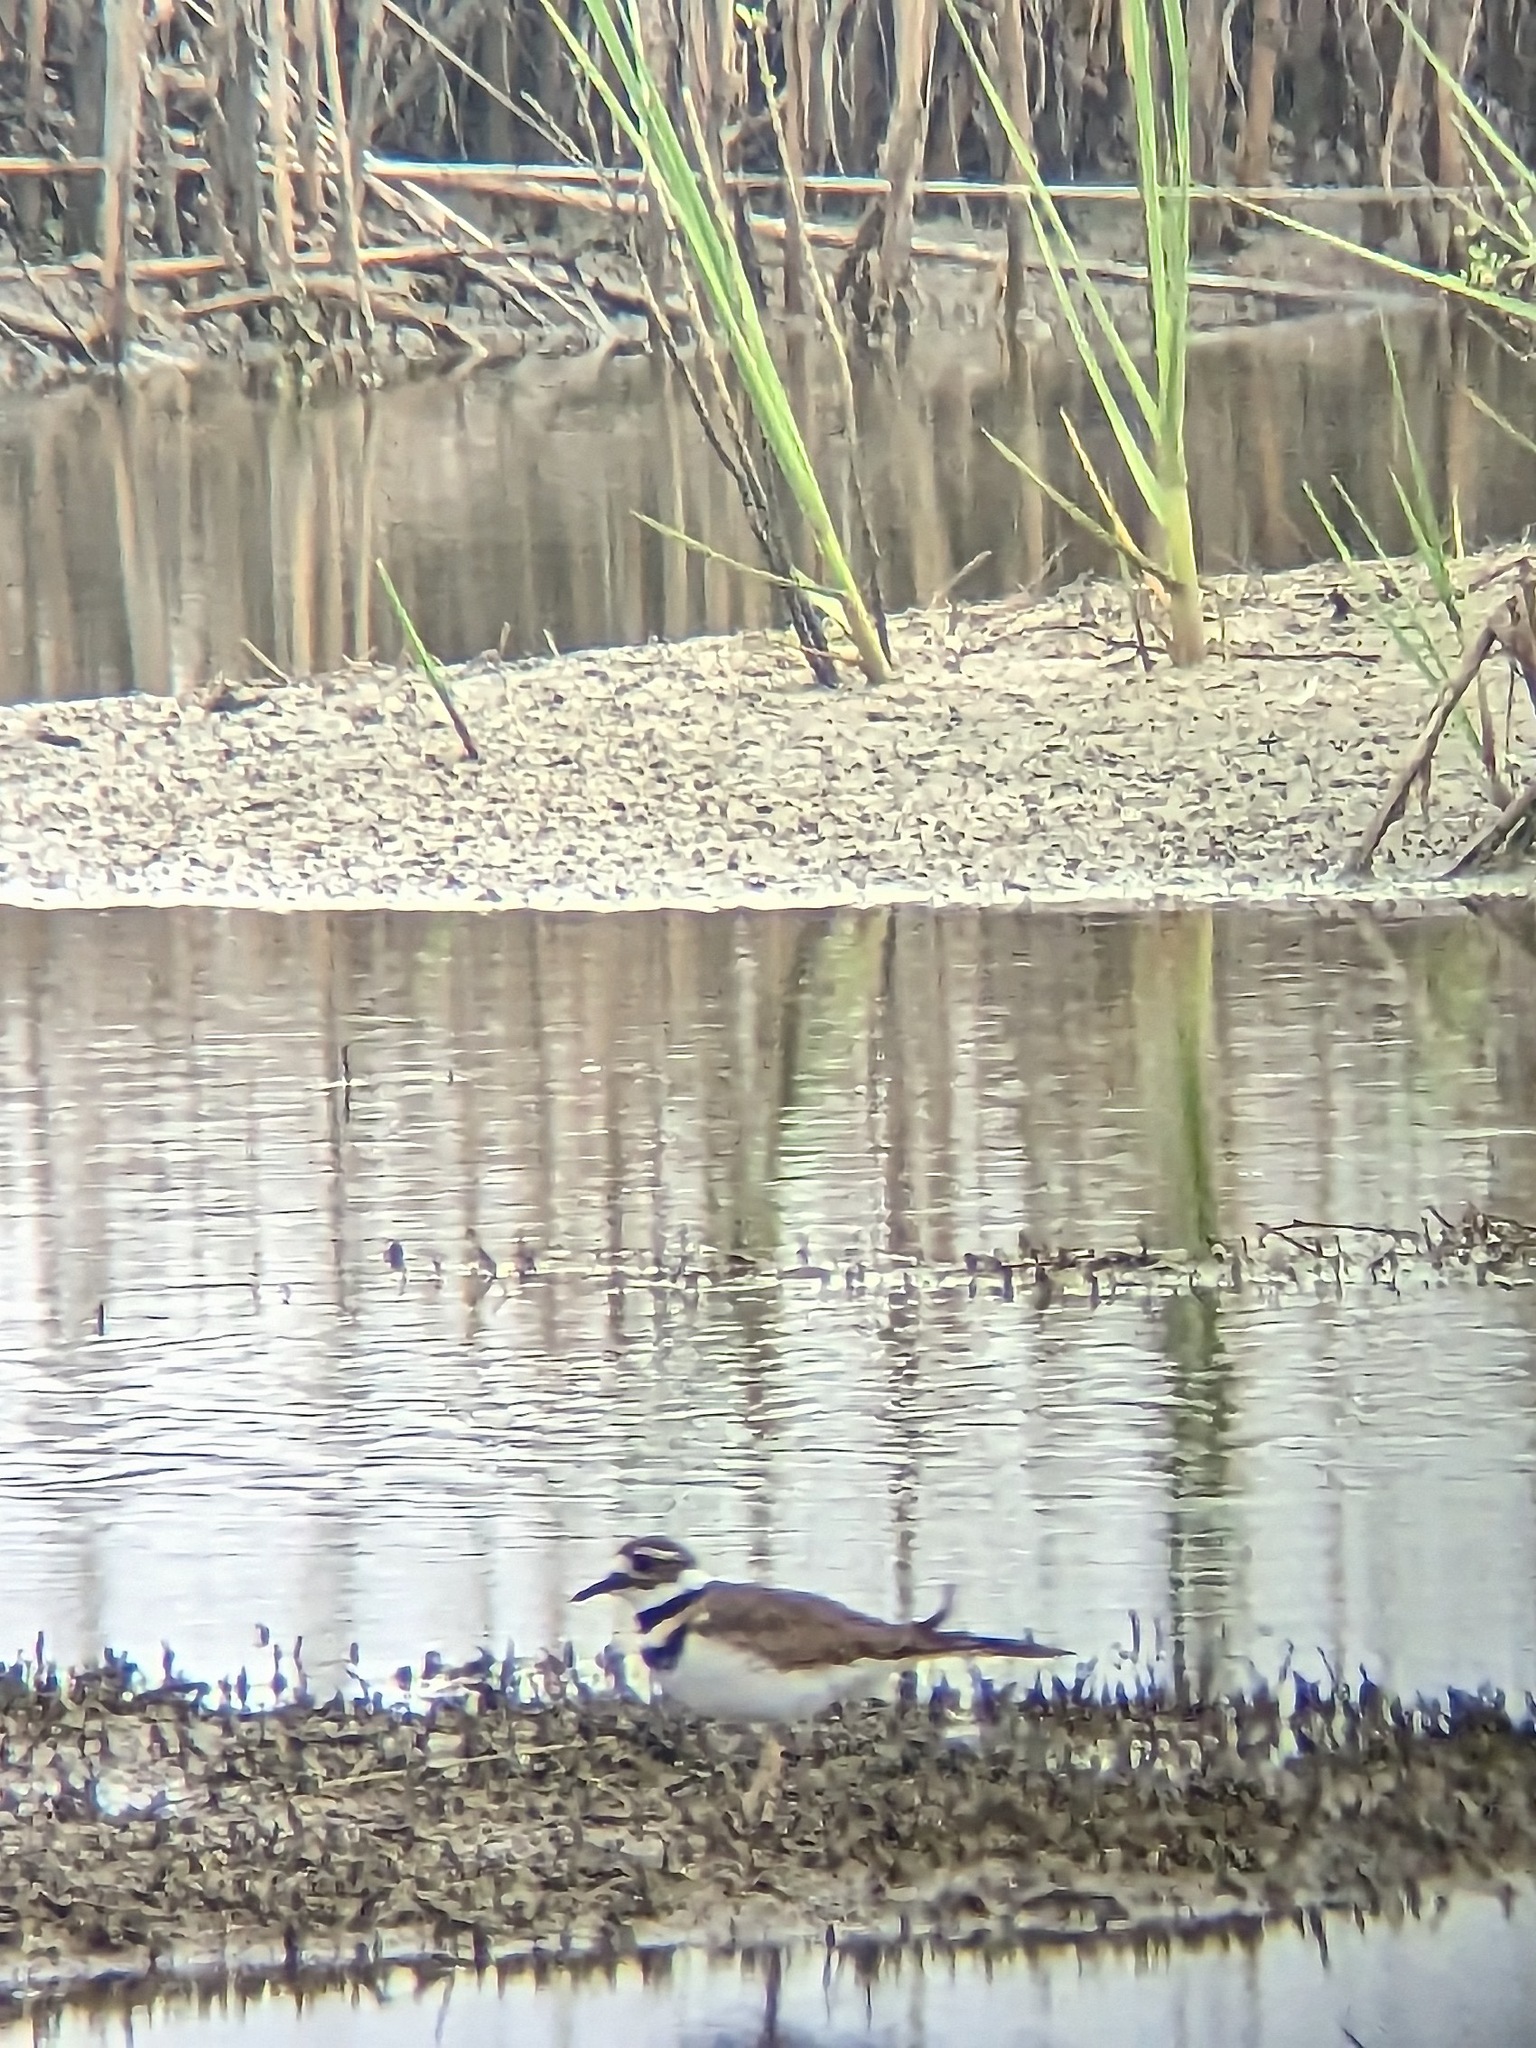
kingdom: Animalia
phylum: Chordata
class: Aves
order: Charadriiformes
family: Charadriidae
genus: Charadrius
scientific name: Charadrius vociferus
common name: Killdeer
